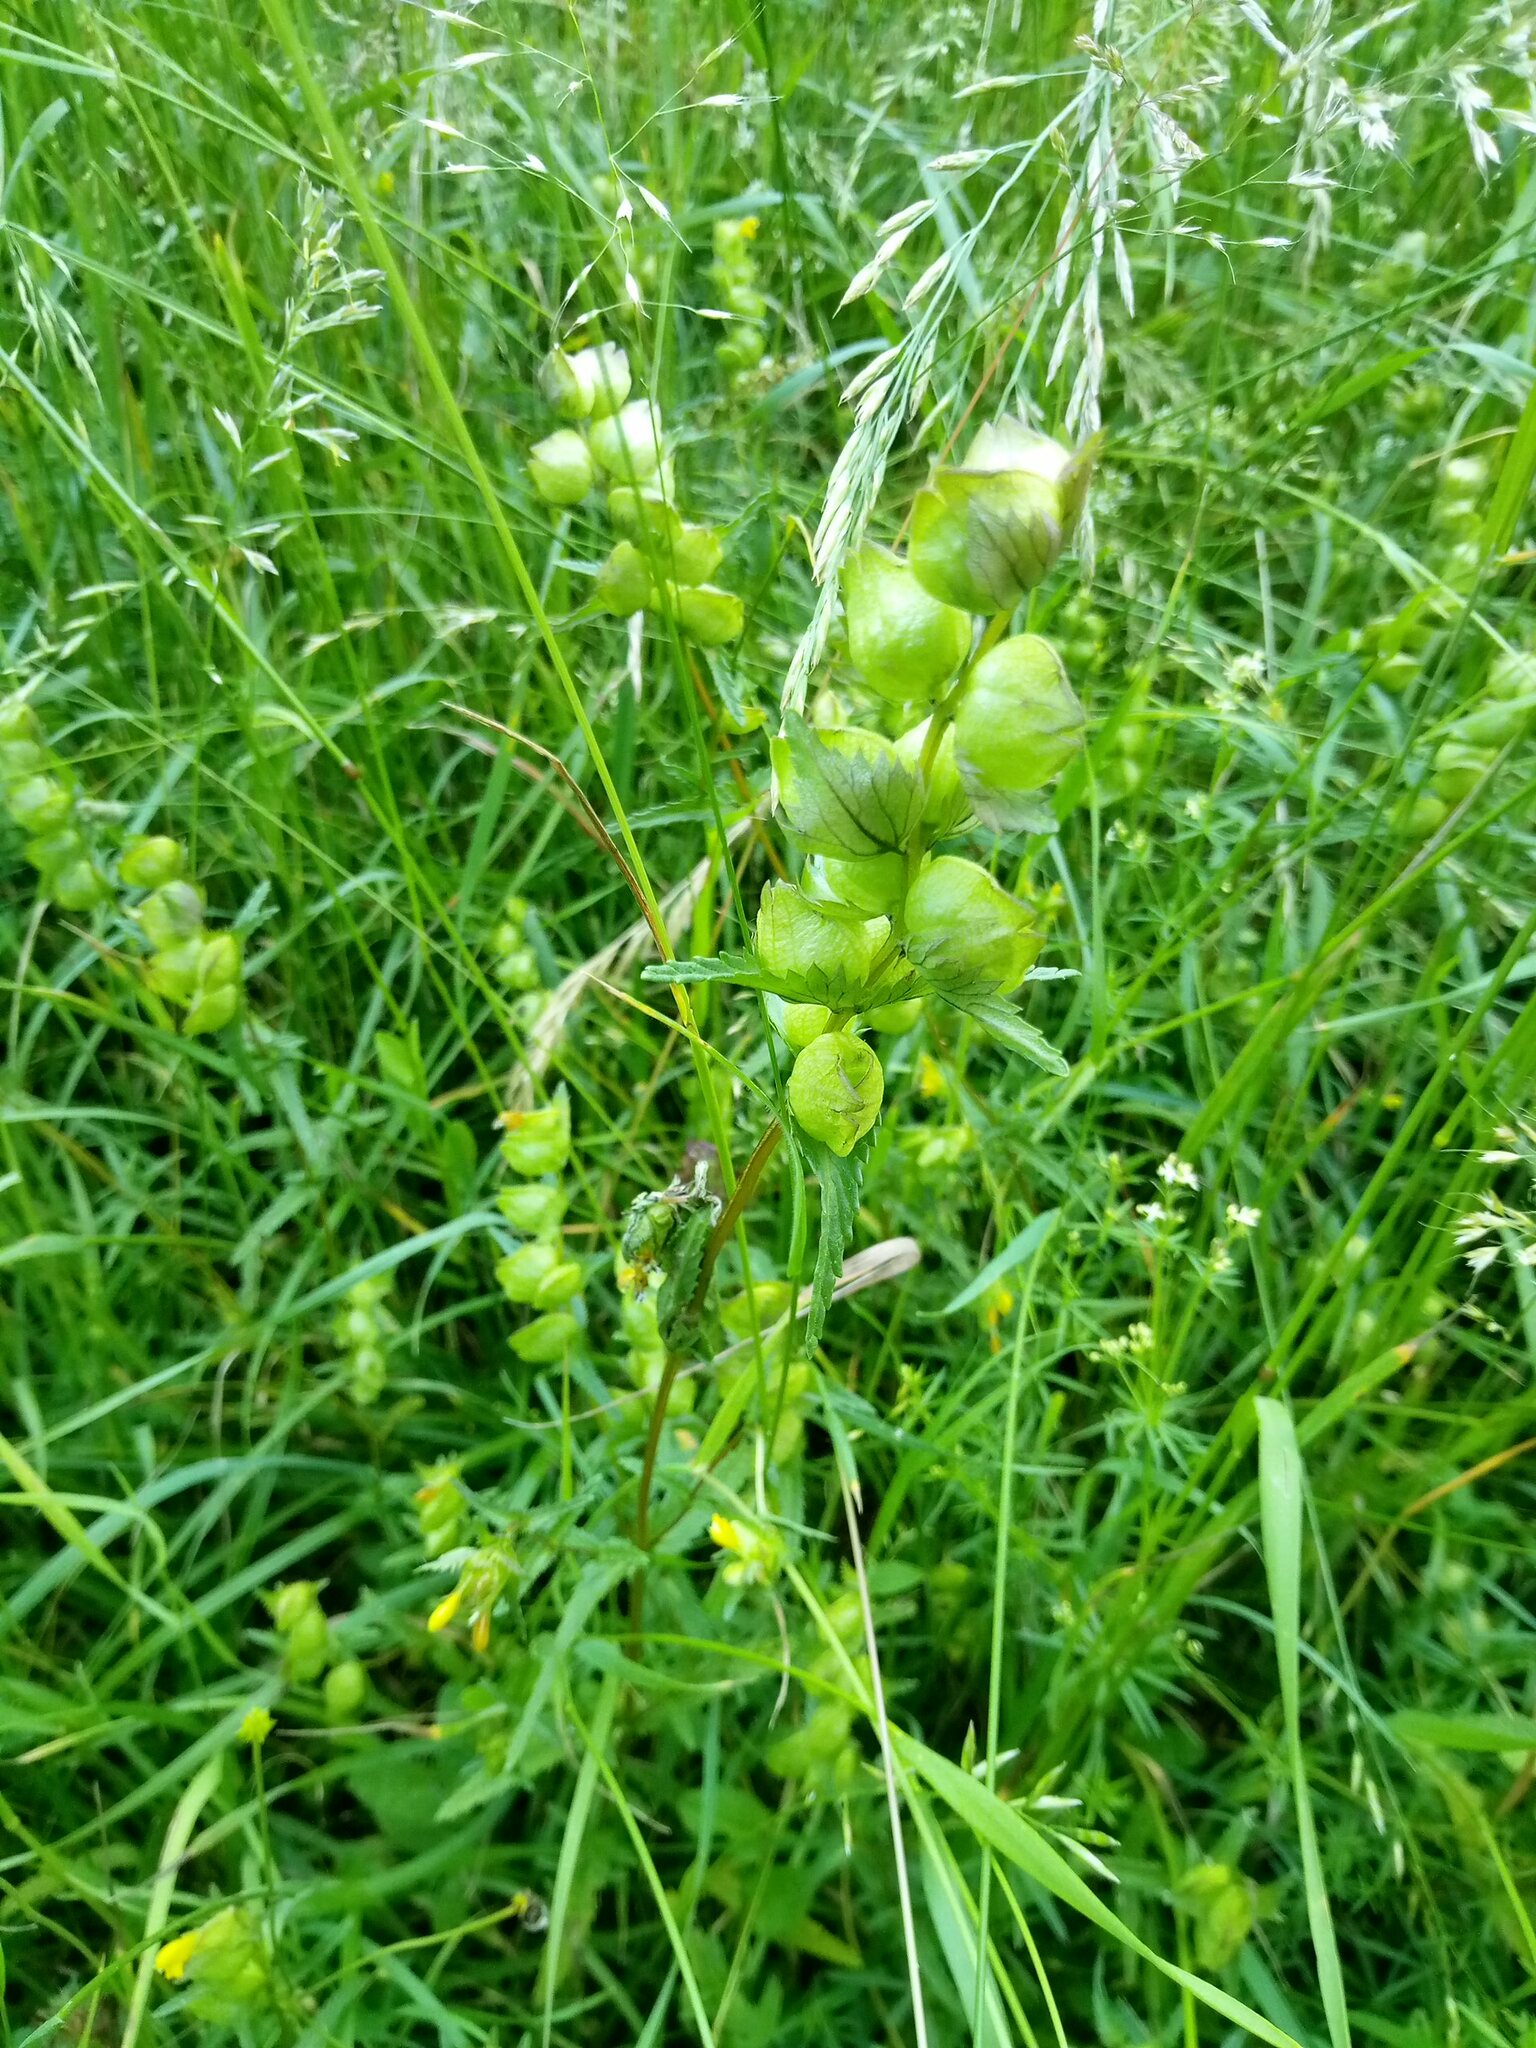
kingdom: Plantae
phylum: Tracheophyta
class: Magnoliopsida
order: Lamiales
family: Orobanchaceae
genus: Rhinanthus
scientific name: Rhinanthus minor
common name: Yellow-rattle
